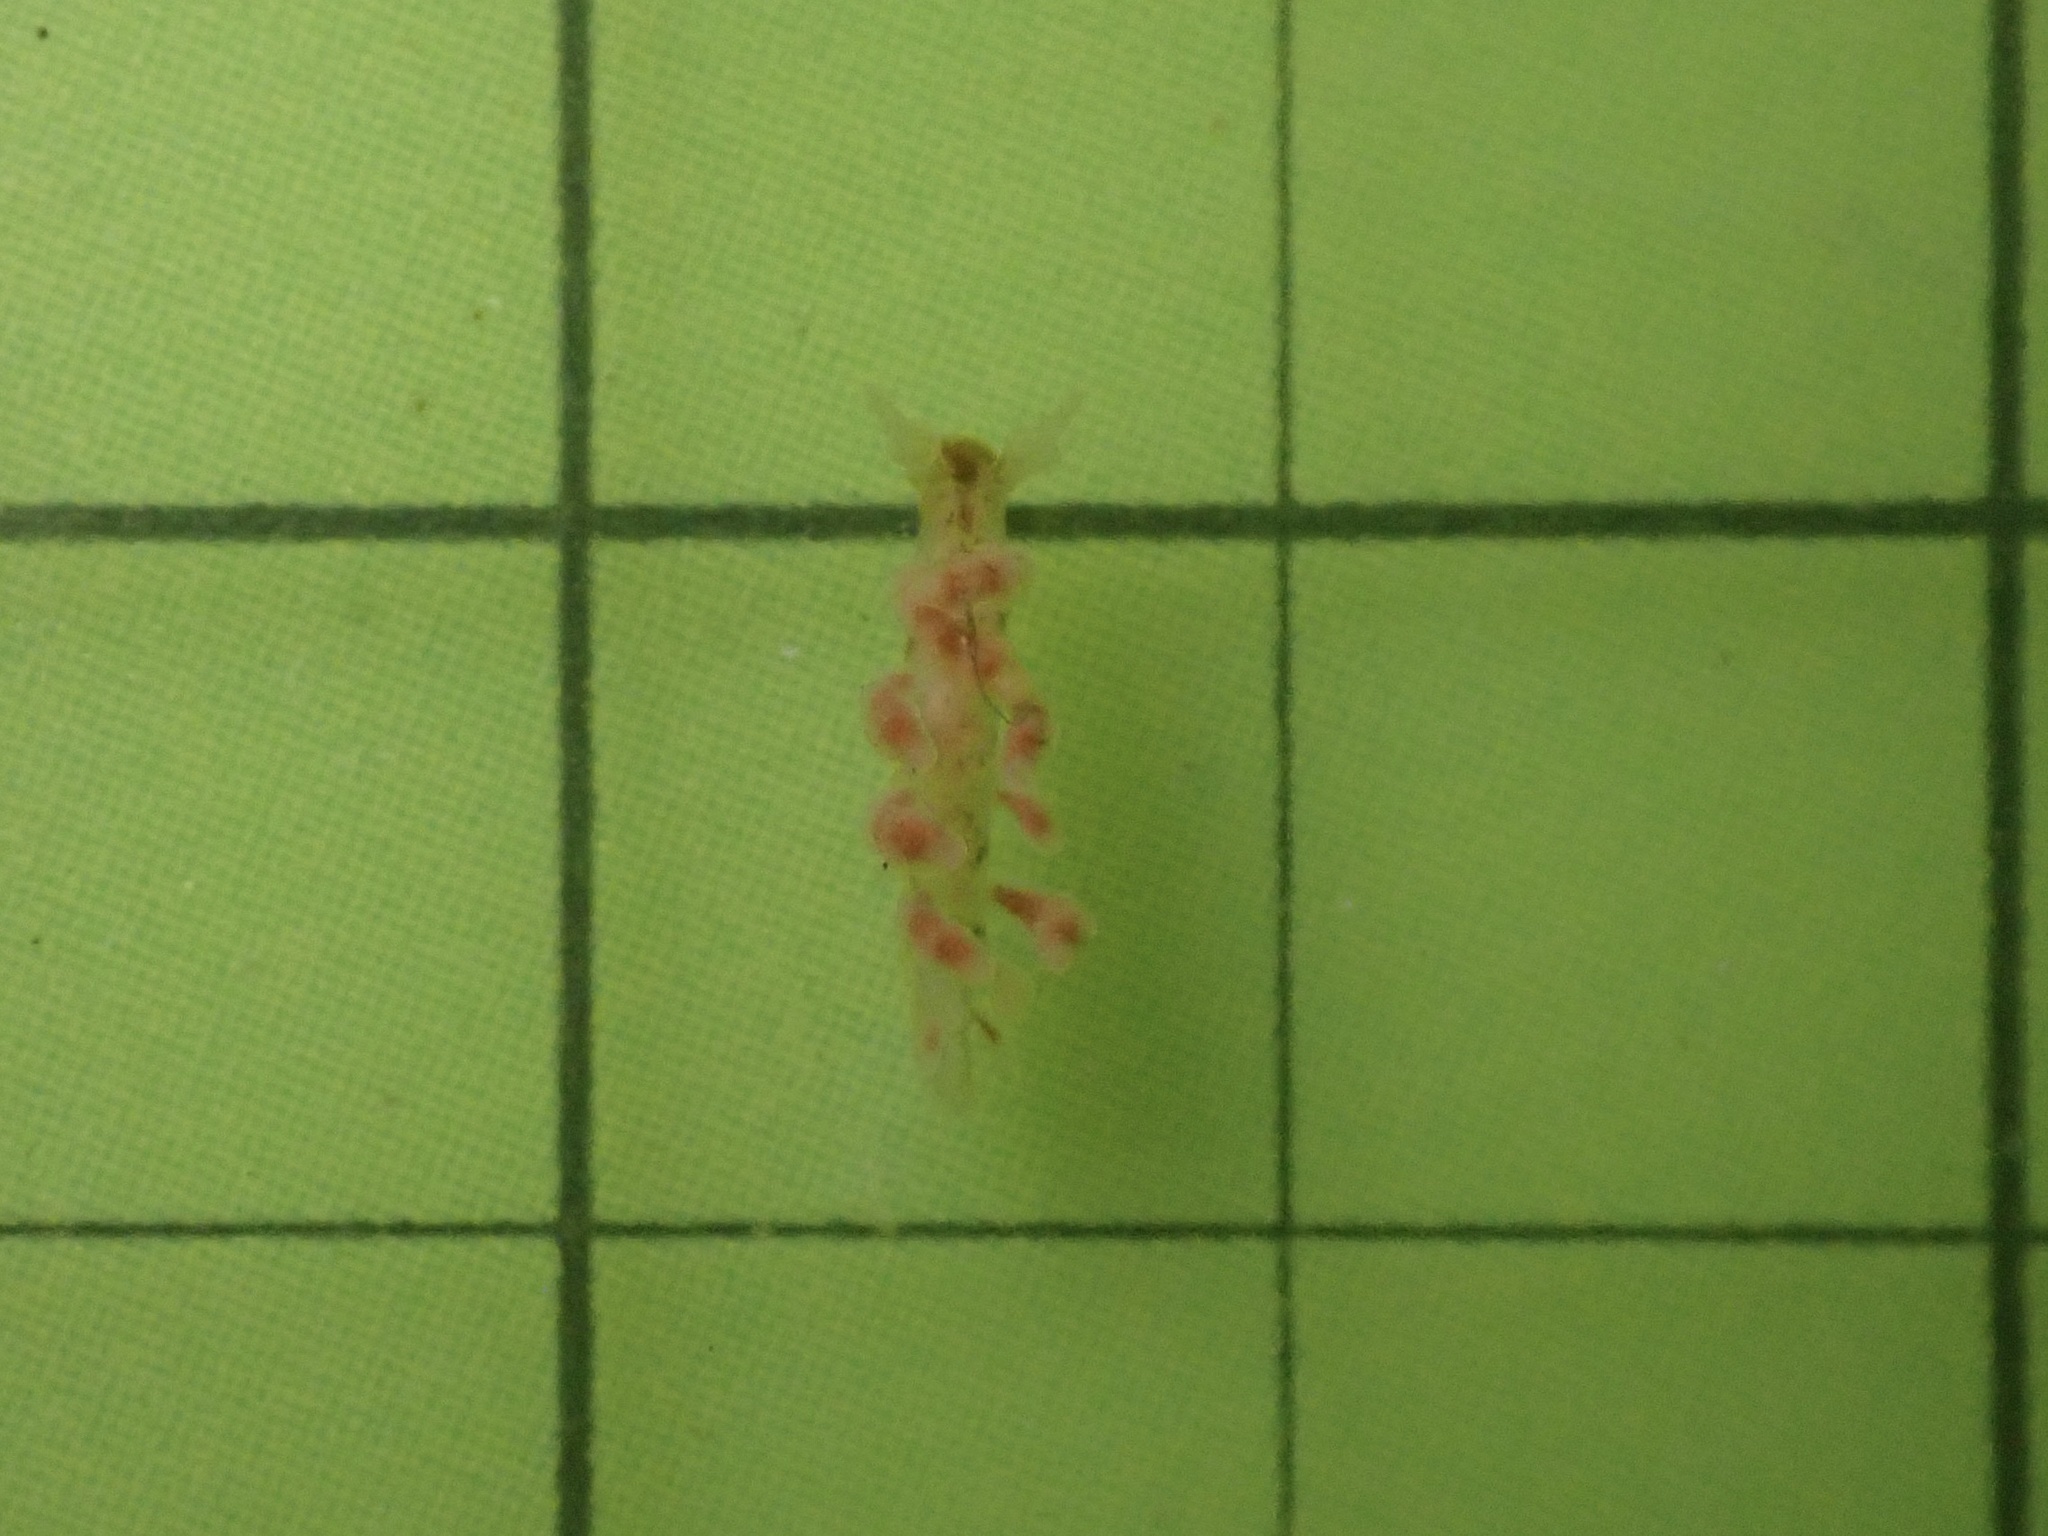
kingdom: Animalia
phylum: Mollusca
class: Gastropoda
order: Nudibranchia
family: Dotidae
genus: Doto
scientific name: Doto columbiana
